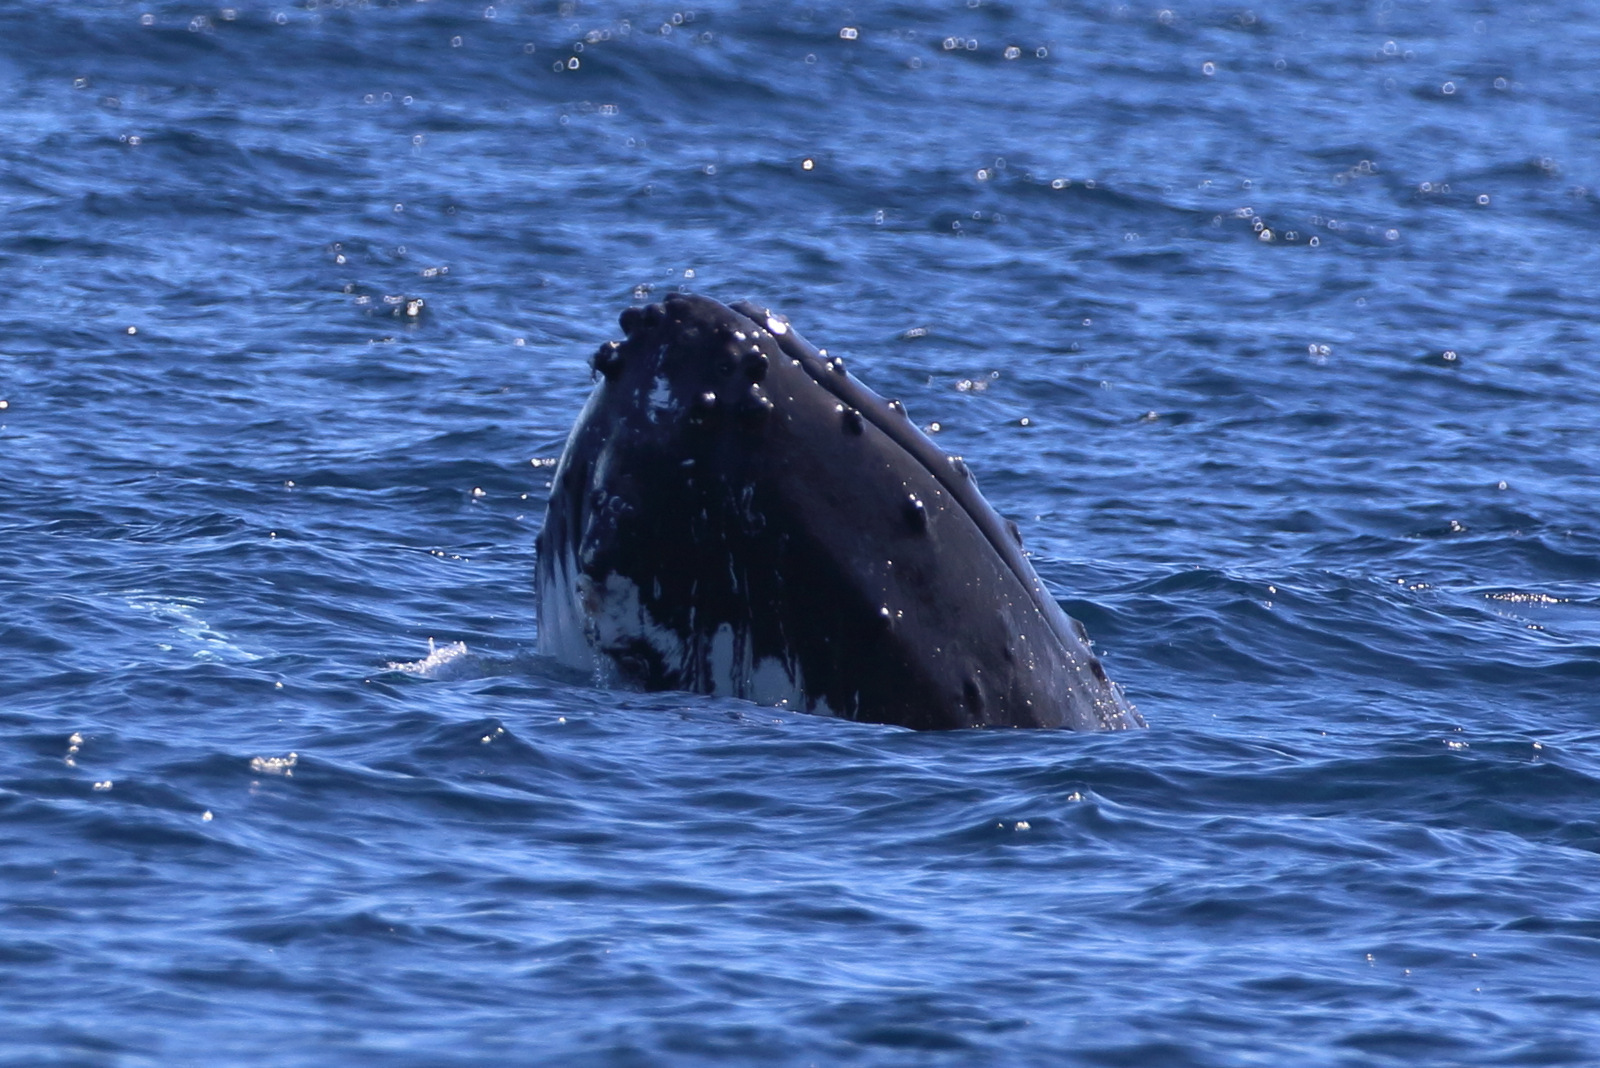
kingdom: Animalia
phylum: Chordata
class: Mammalia
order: Cetacea
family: Balaenopteridae
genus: Megaptera
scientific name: Megaptera novaeangliae
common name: Humpback whale
